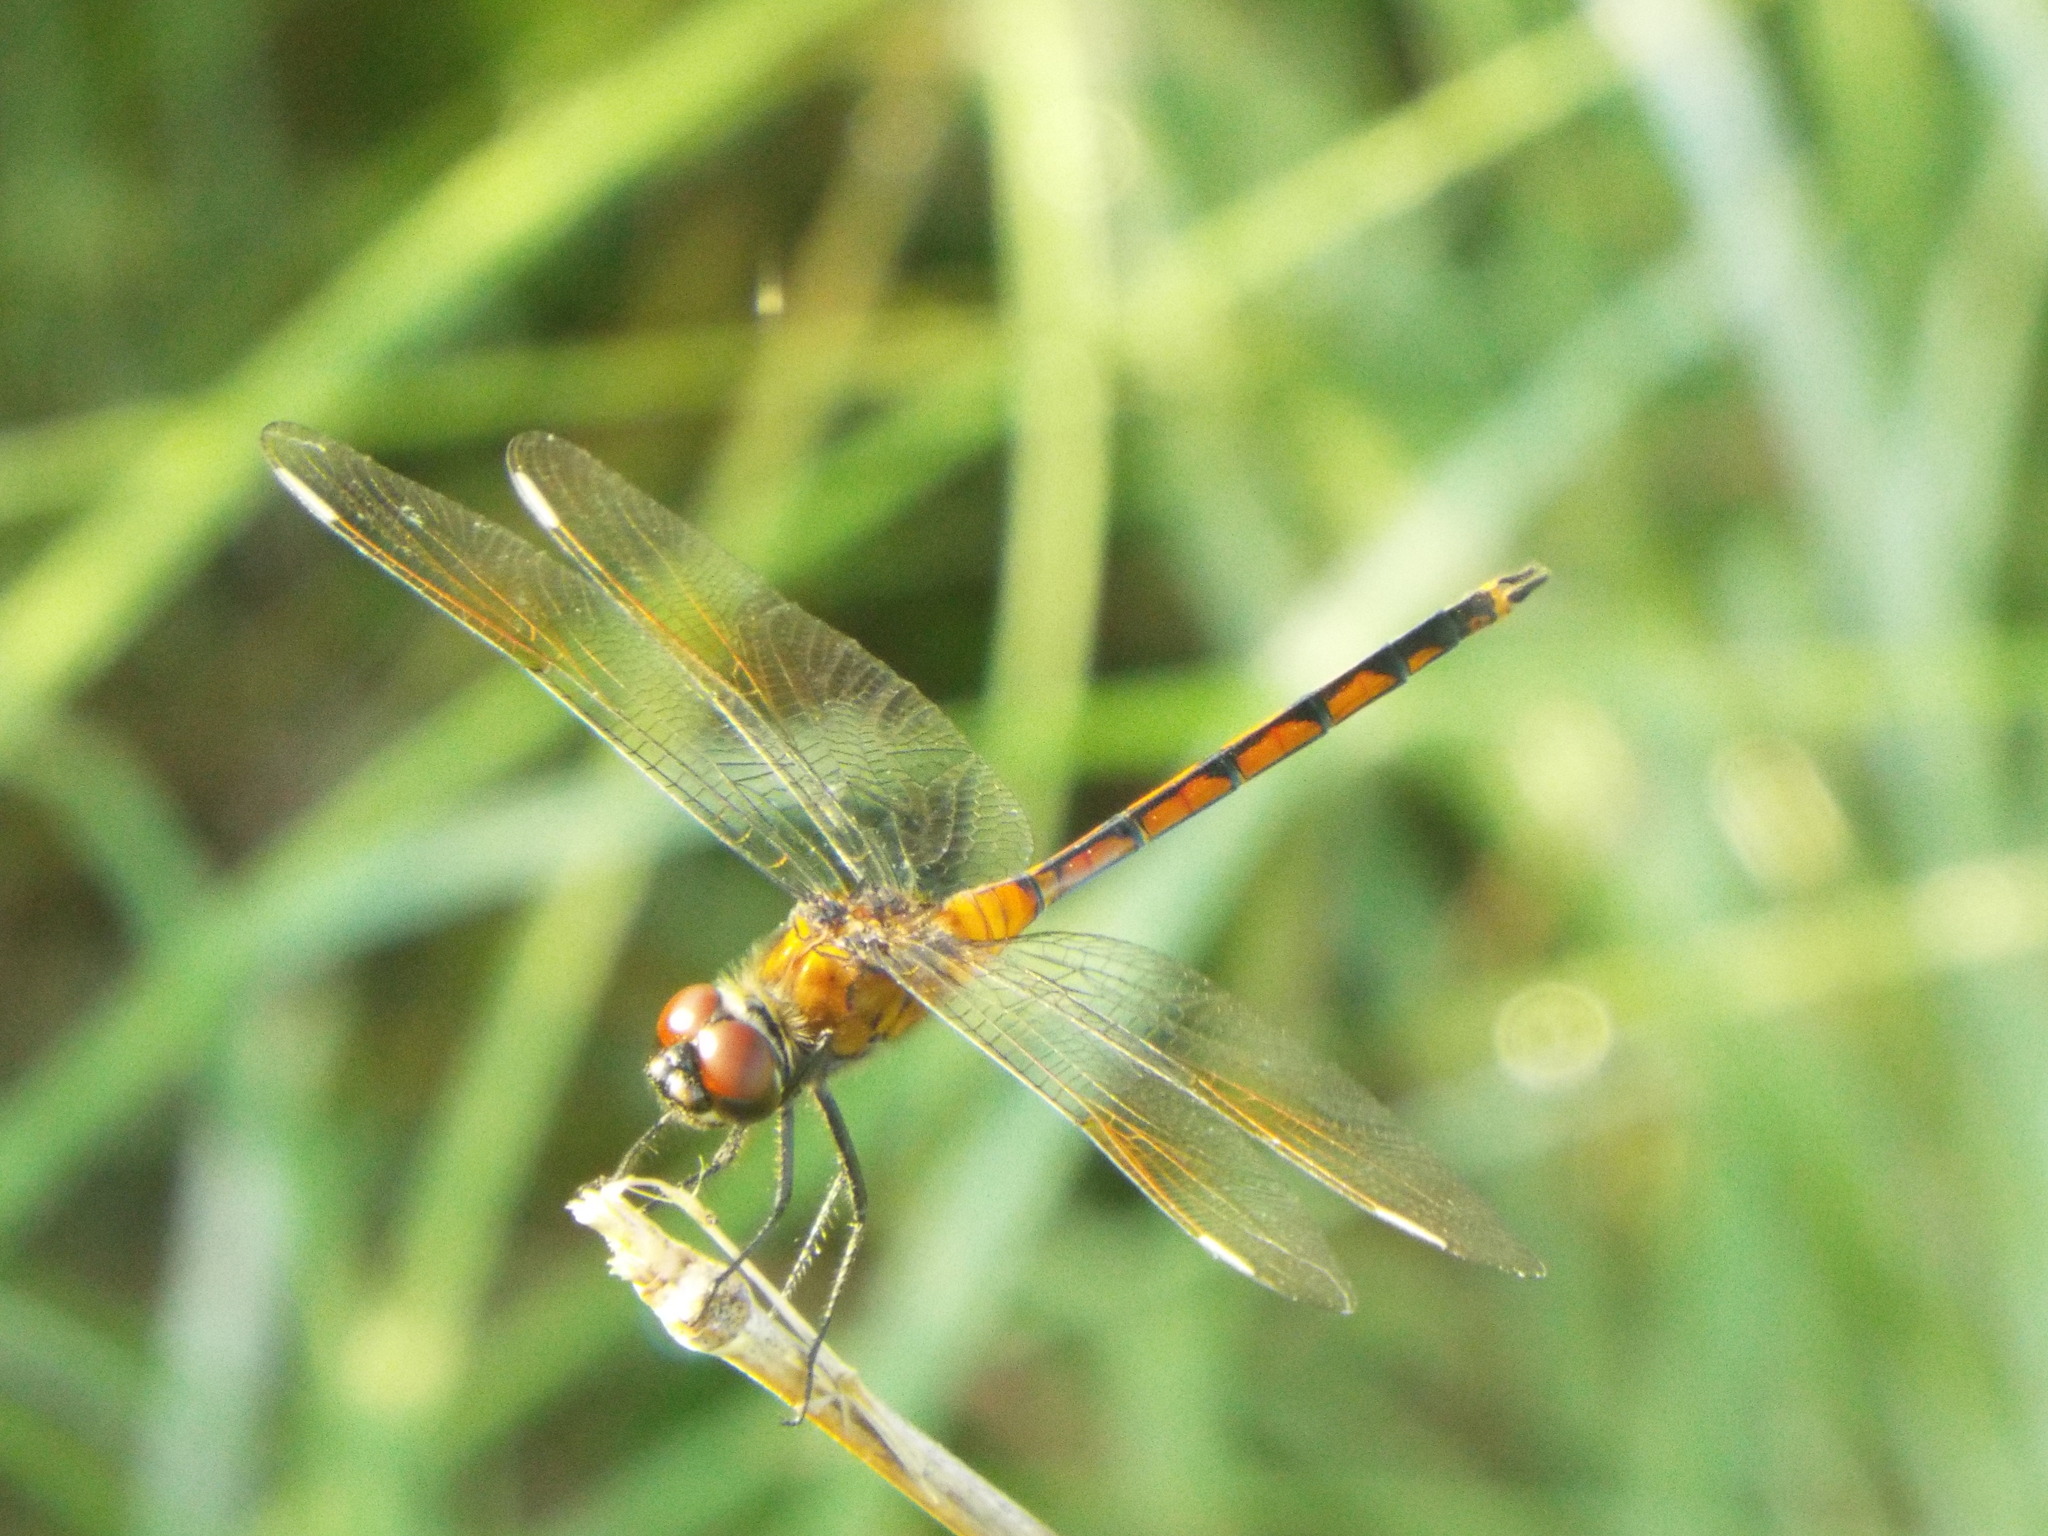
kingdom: Animalia
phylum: Arthropoda
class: Insecta
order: Odonata
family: Libellulidae
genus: Brachymesia
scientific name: Brachymesia gravida
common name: Four-spotted pennant
